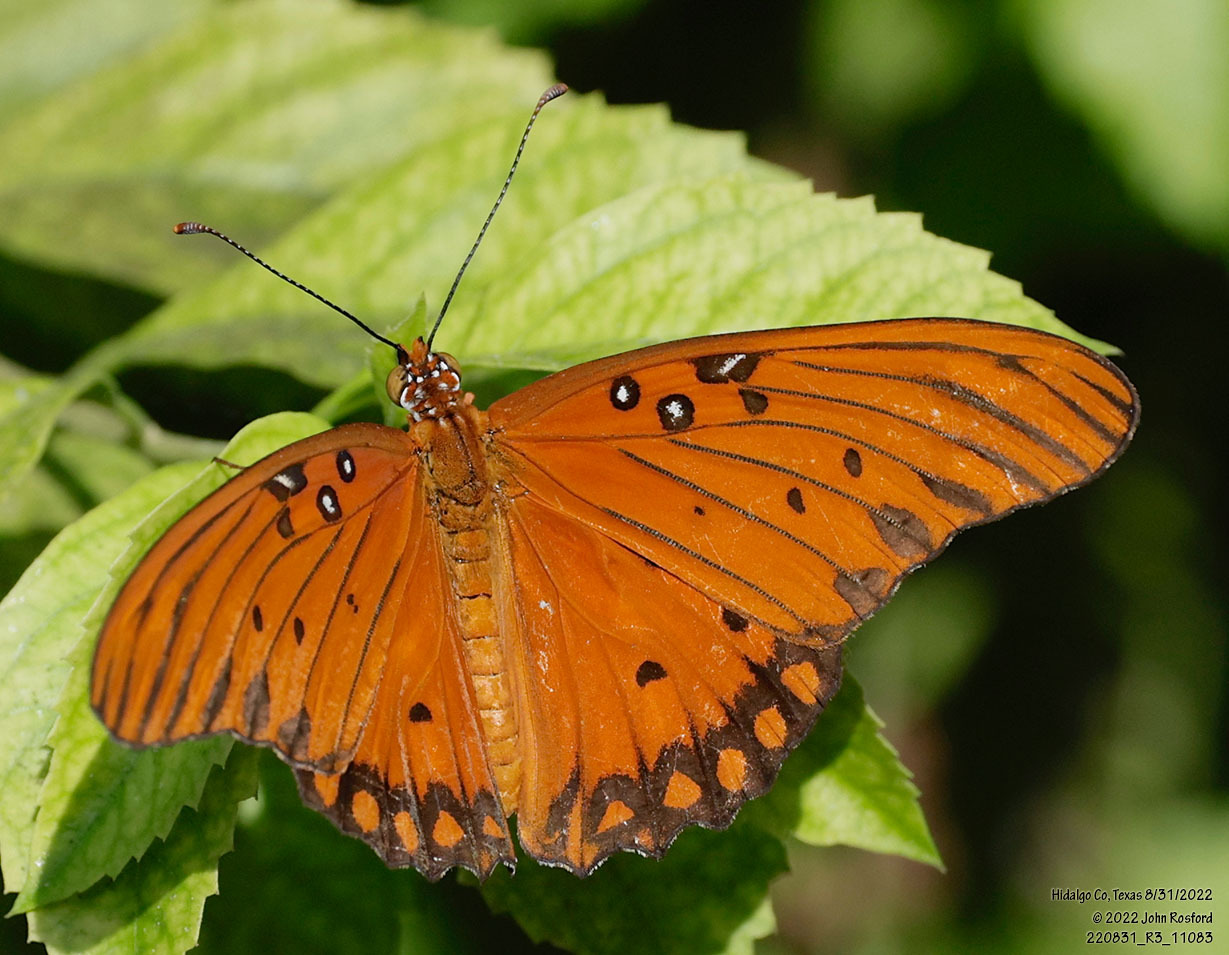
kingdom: Animalia
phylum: Arthropoda
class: Insecta
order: Lepidoptera
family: Nymphalidae
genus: Dione
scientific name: Dione vanillae
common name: Gulf fritillary
